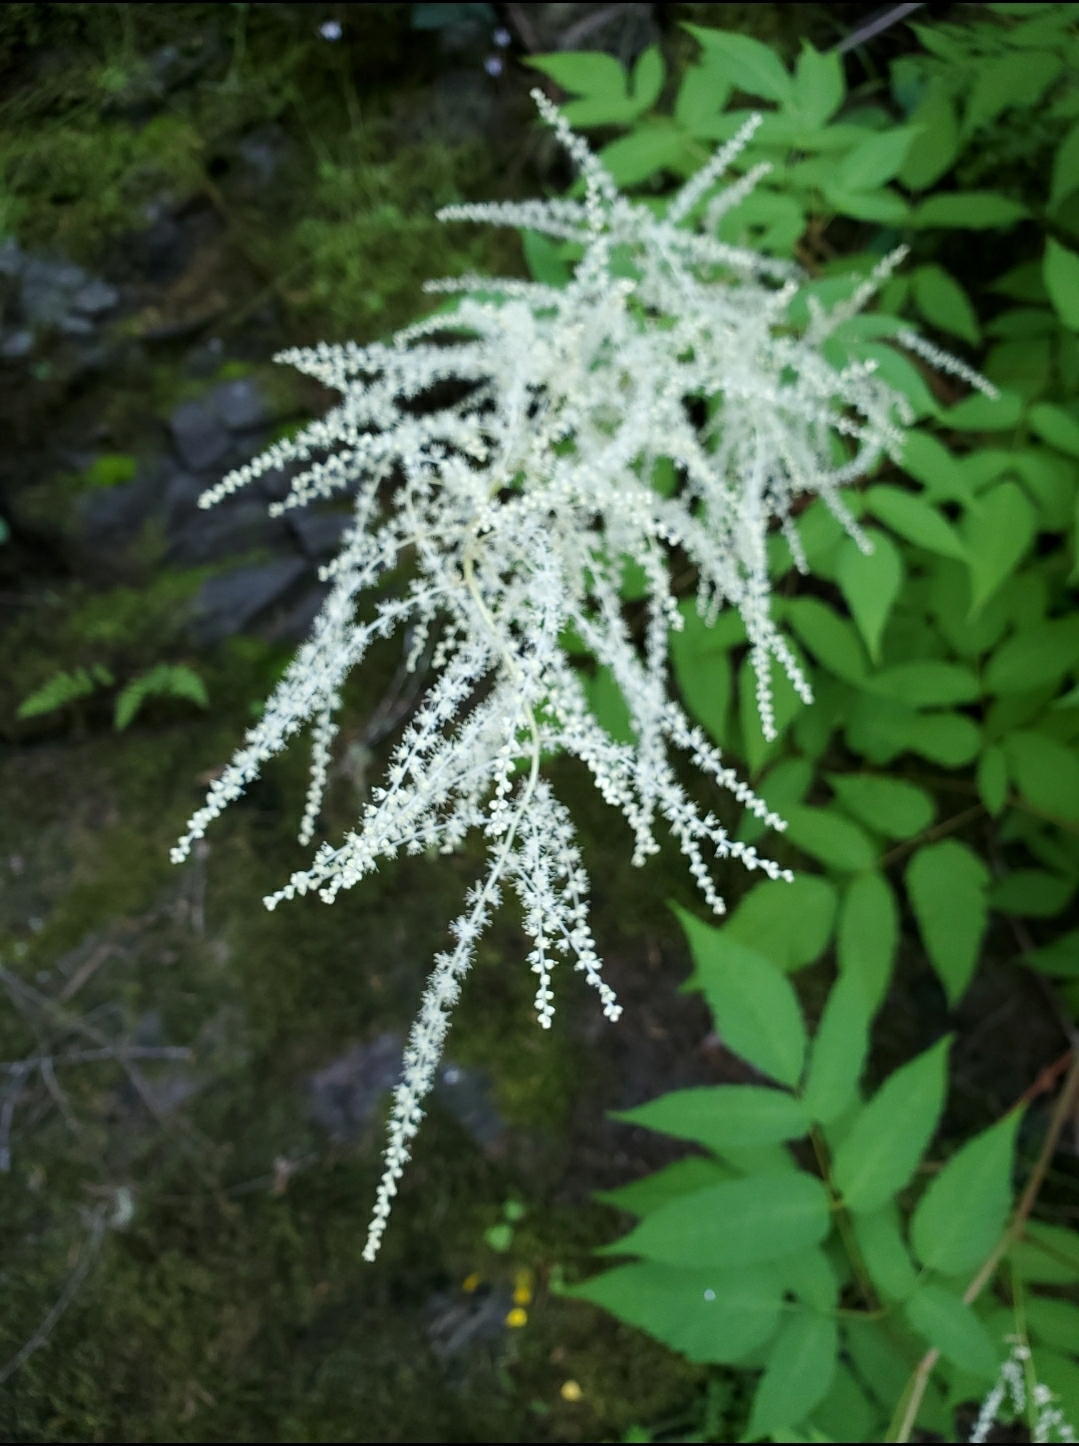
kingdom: Plantae
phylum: Tracheophyta
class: Magnoliopsida
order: Rosales
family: Rosaceae
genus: Aruncus
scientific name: Aruncus dioicus
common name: Buck's-beard
